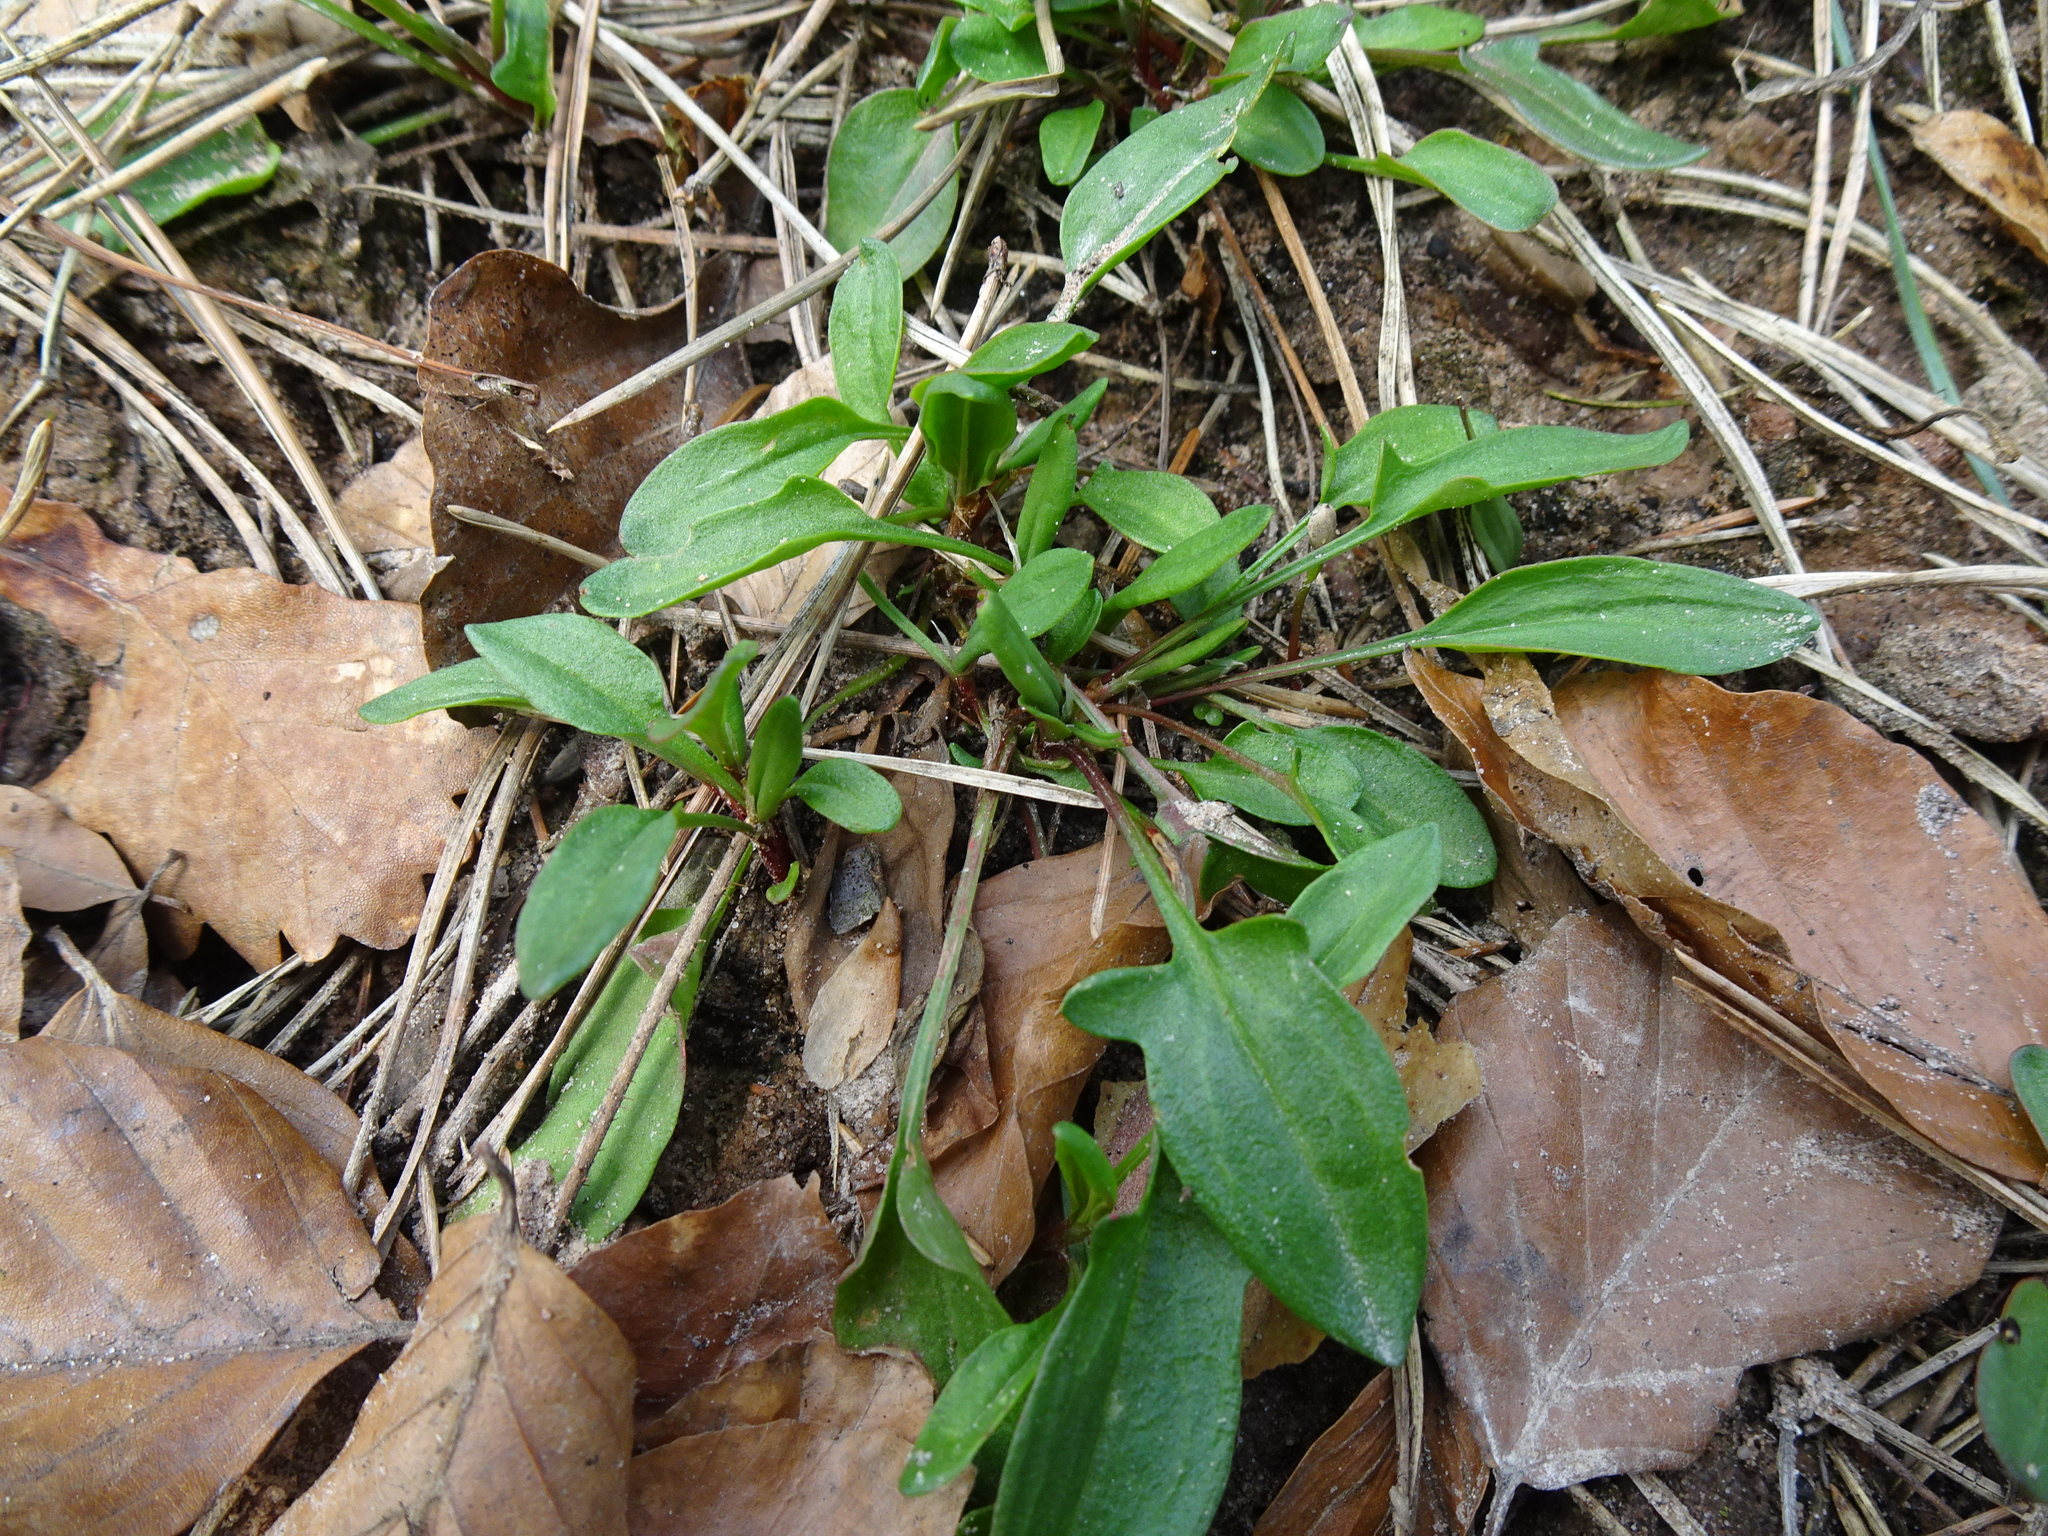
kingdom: Plantae
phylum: Tracheophyta
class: Magnoliopsida
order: Caryophyllales
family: Polygonaceae
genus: Rumex
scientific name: Rumex acetosella
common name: Common sheep sorrel
